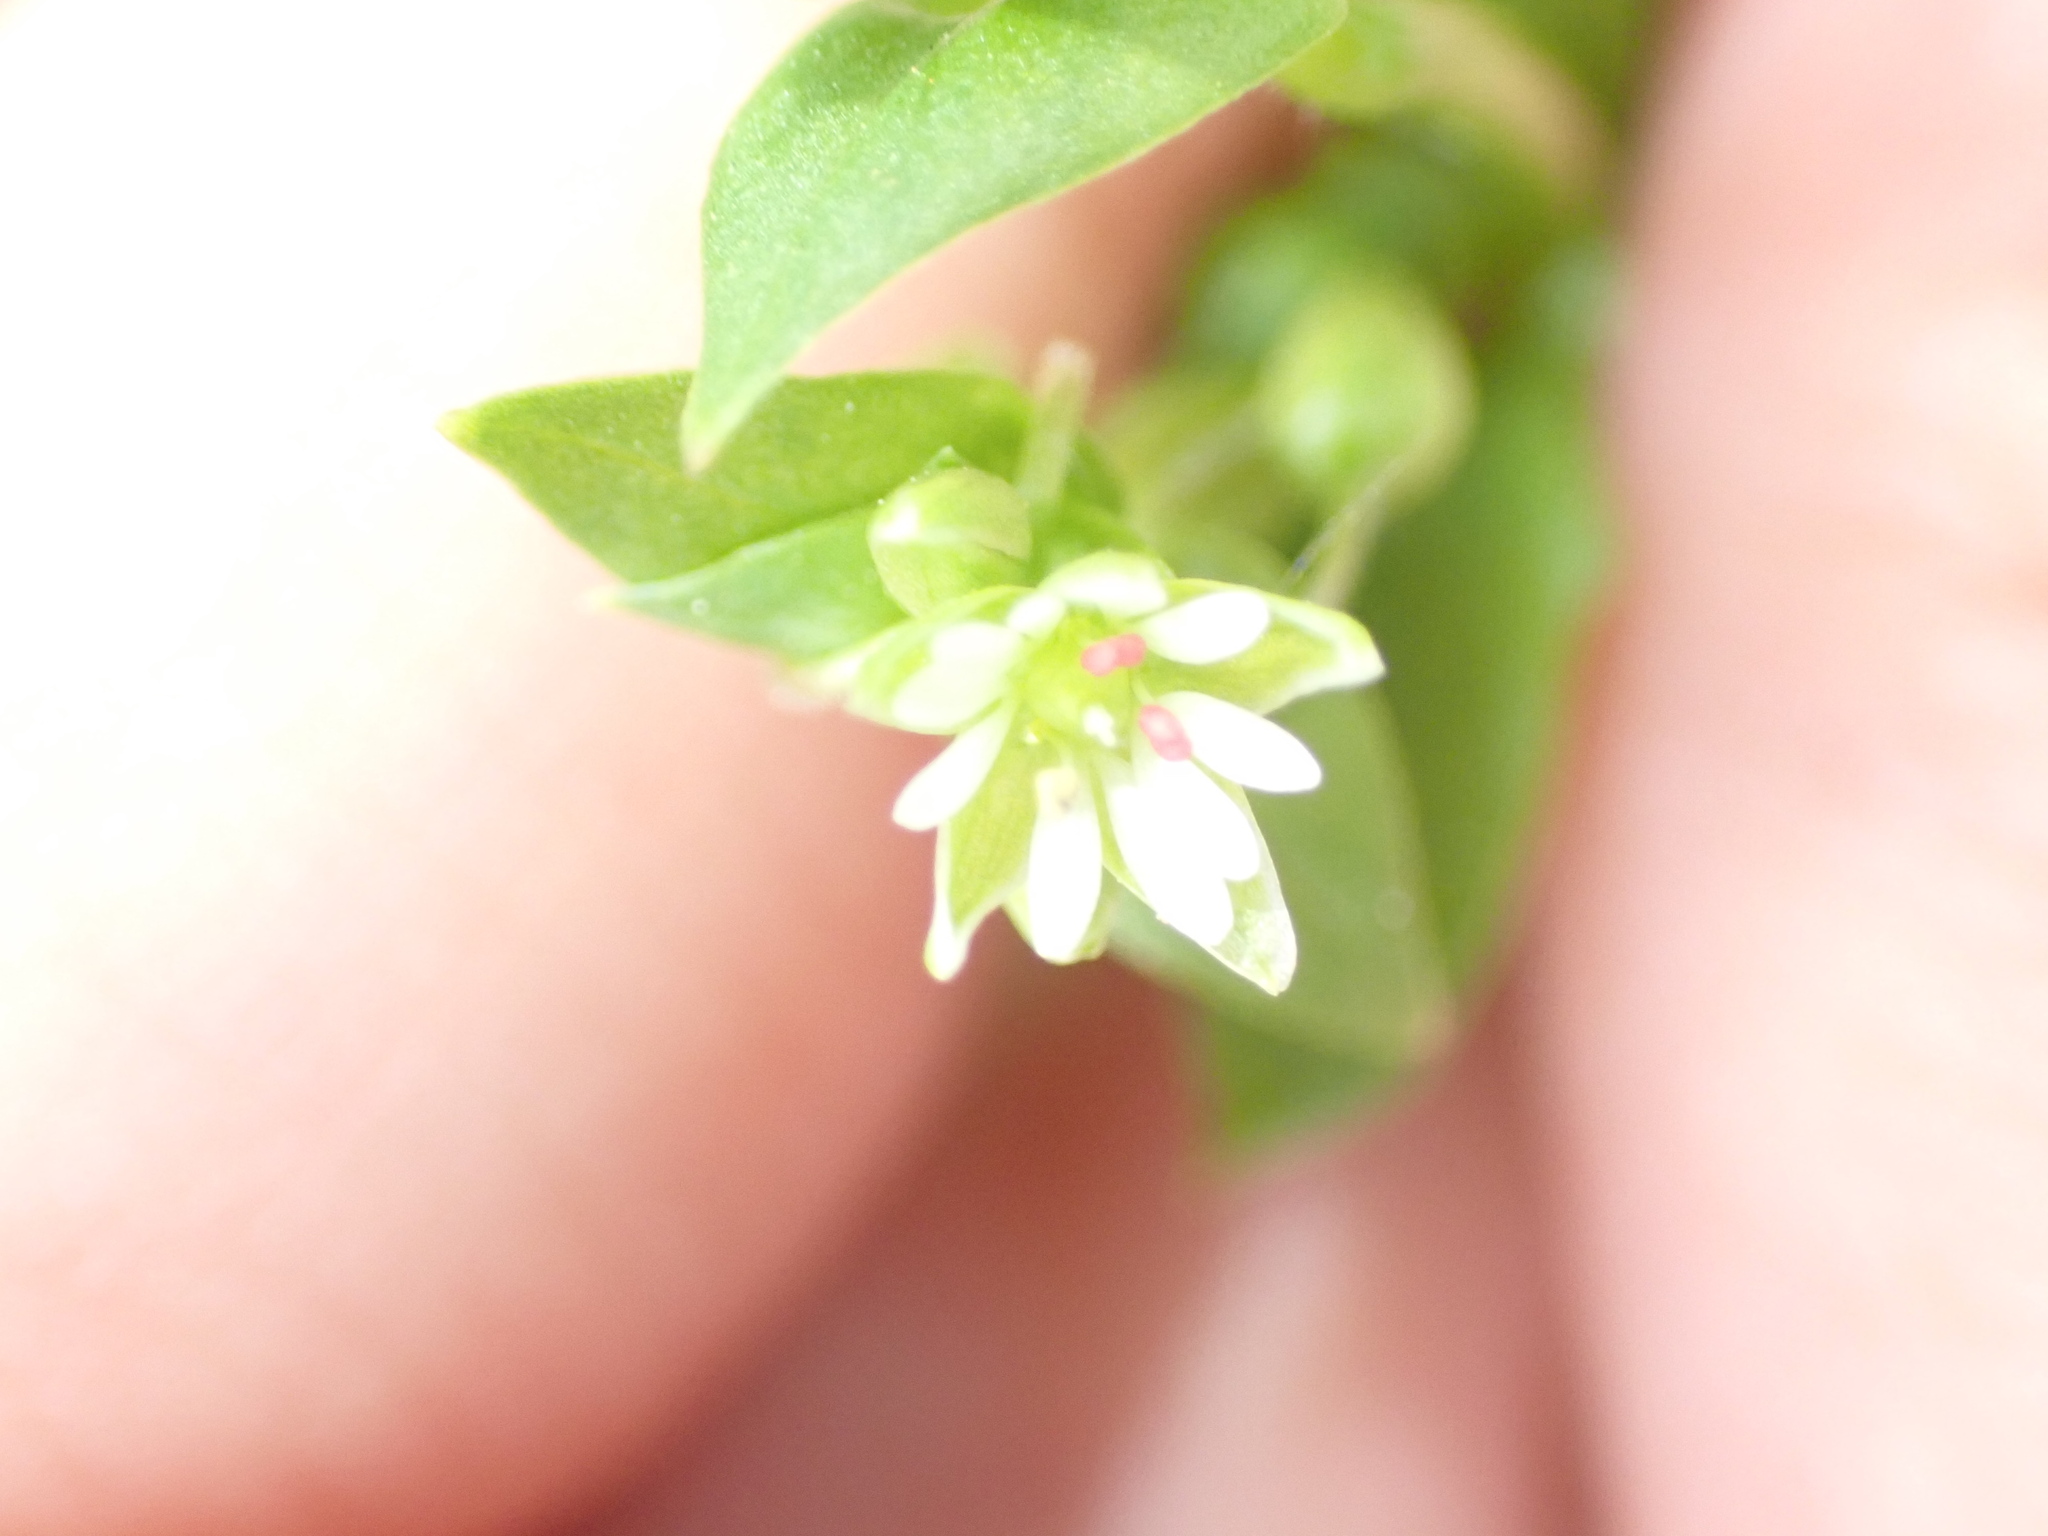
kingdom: Plantae
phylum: Tracheophyta
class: Magnoliopsida
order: Caryophyllales
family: Caryophyllaceae
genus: Stellaria
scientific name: Stellaria media
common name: Common chickweed
